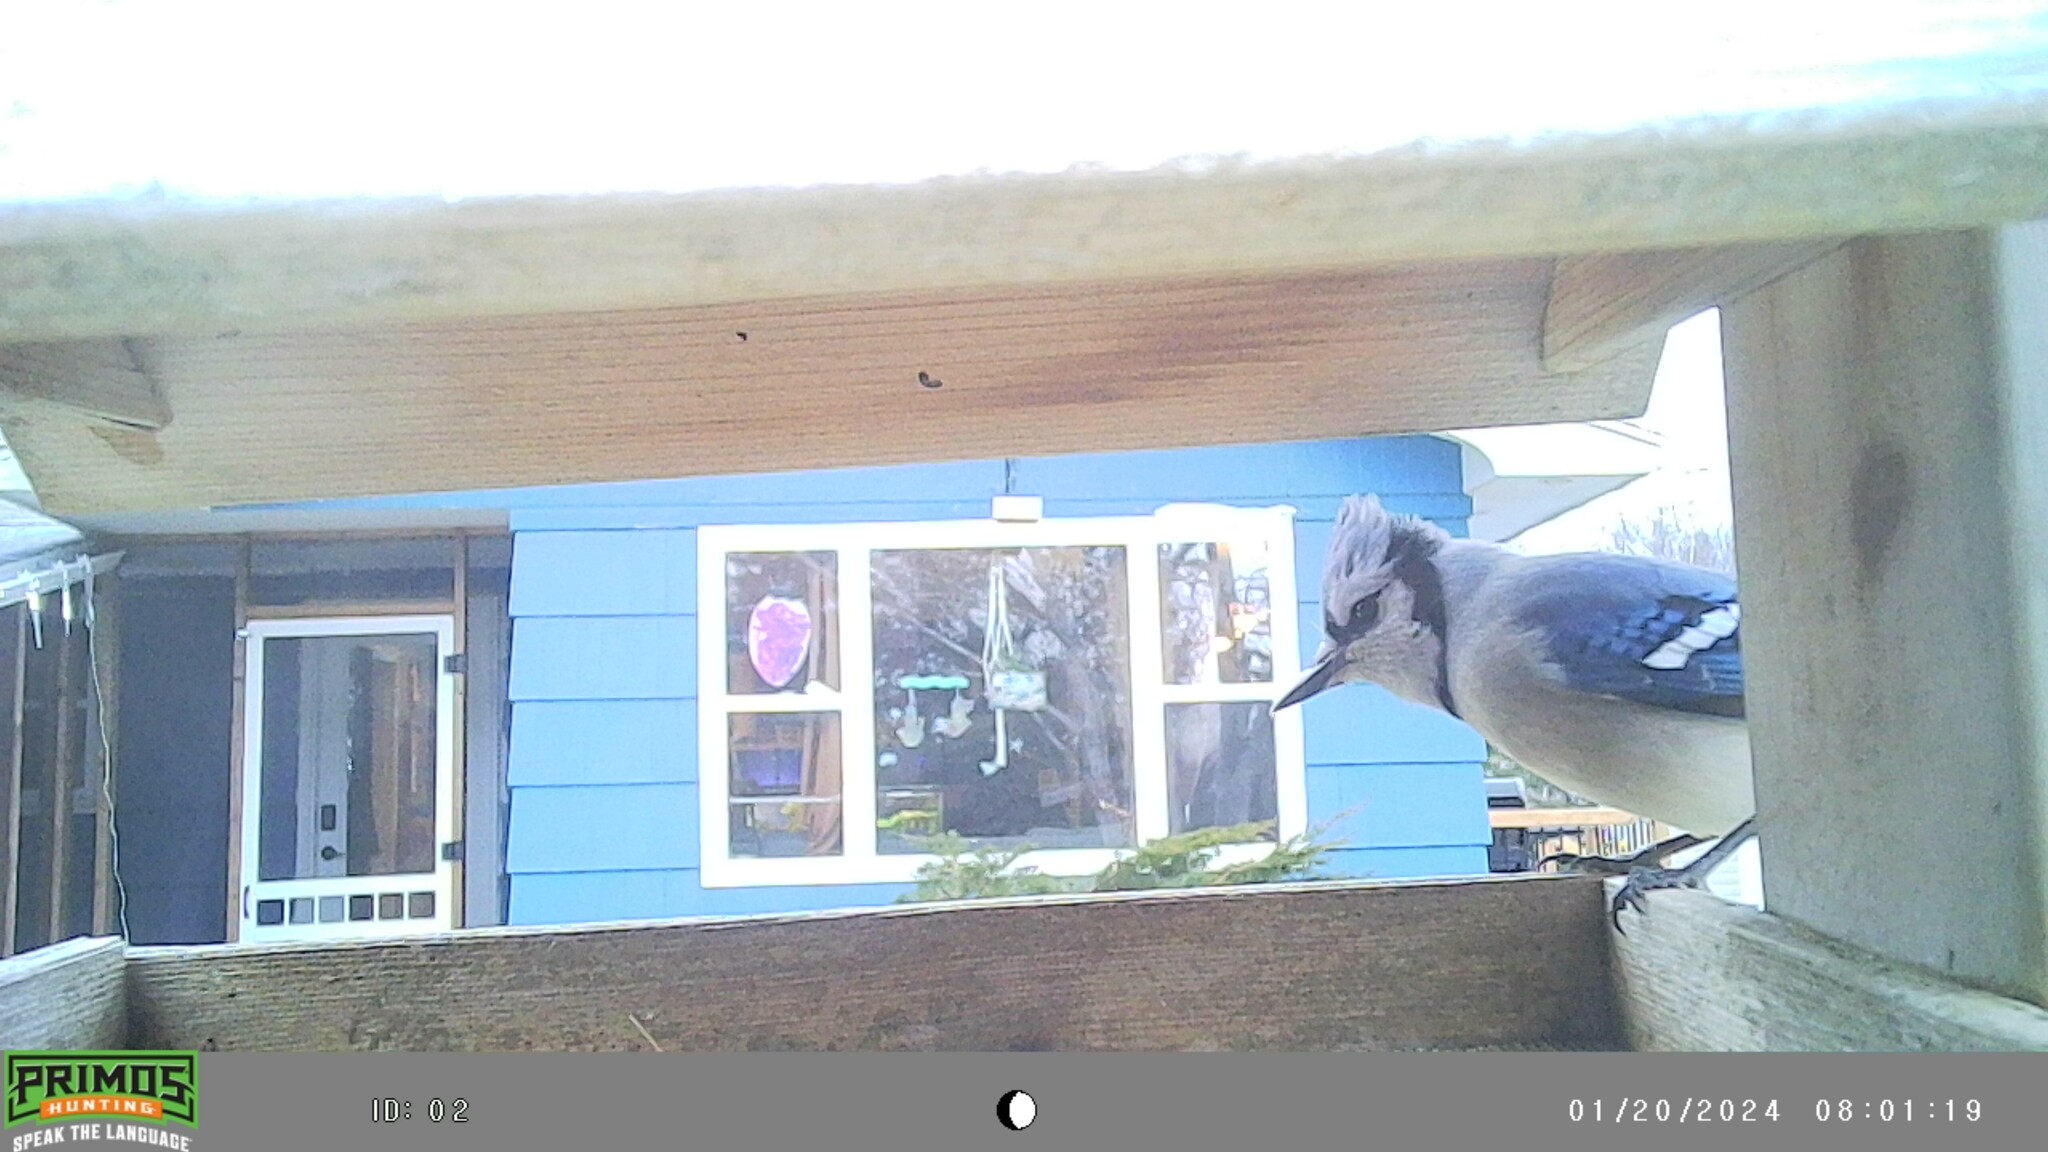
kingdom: Animalia
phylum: Chordata
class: Aves
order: Passeriformes
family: Corvidae
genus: Cyanocitta
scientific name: Cyanocitta cristata
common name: Blue jay
